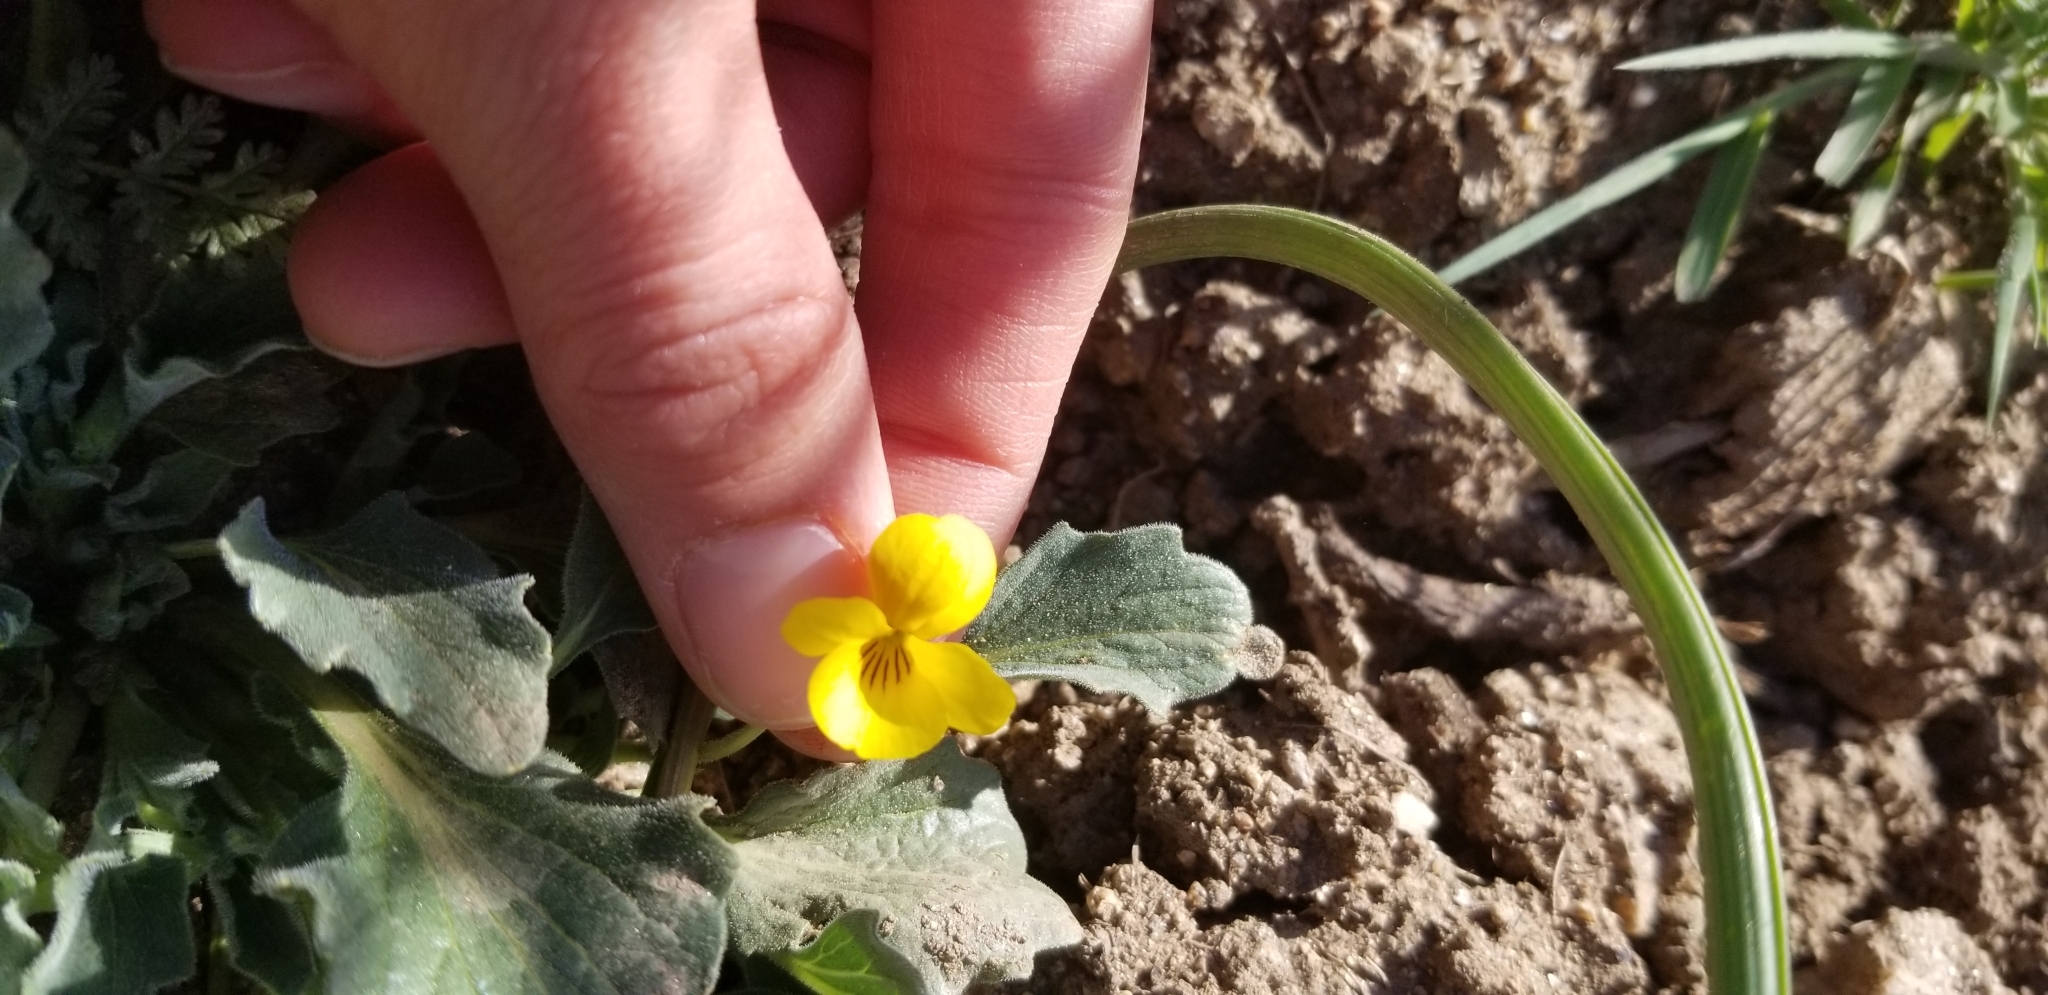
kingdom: Plantae
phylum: Tracheophyta
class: Magnoliopsida
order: Malpighiales
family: Violaceae
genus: Viola
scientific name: Viola purpurea
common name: Pine violet
